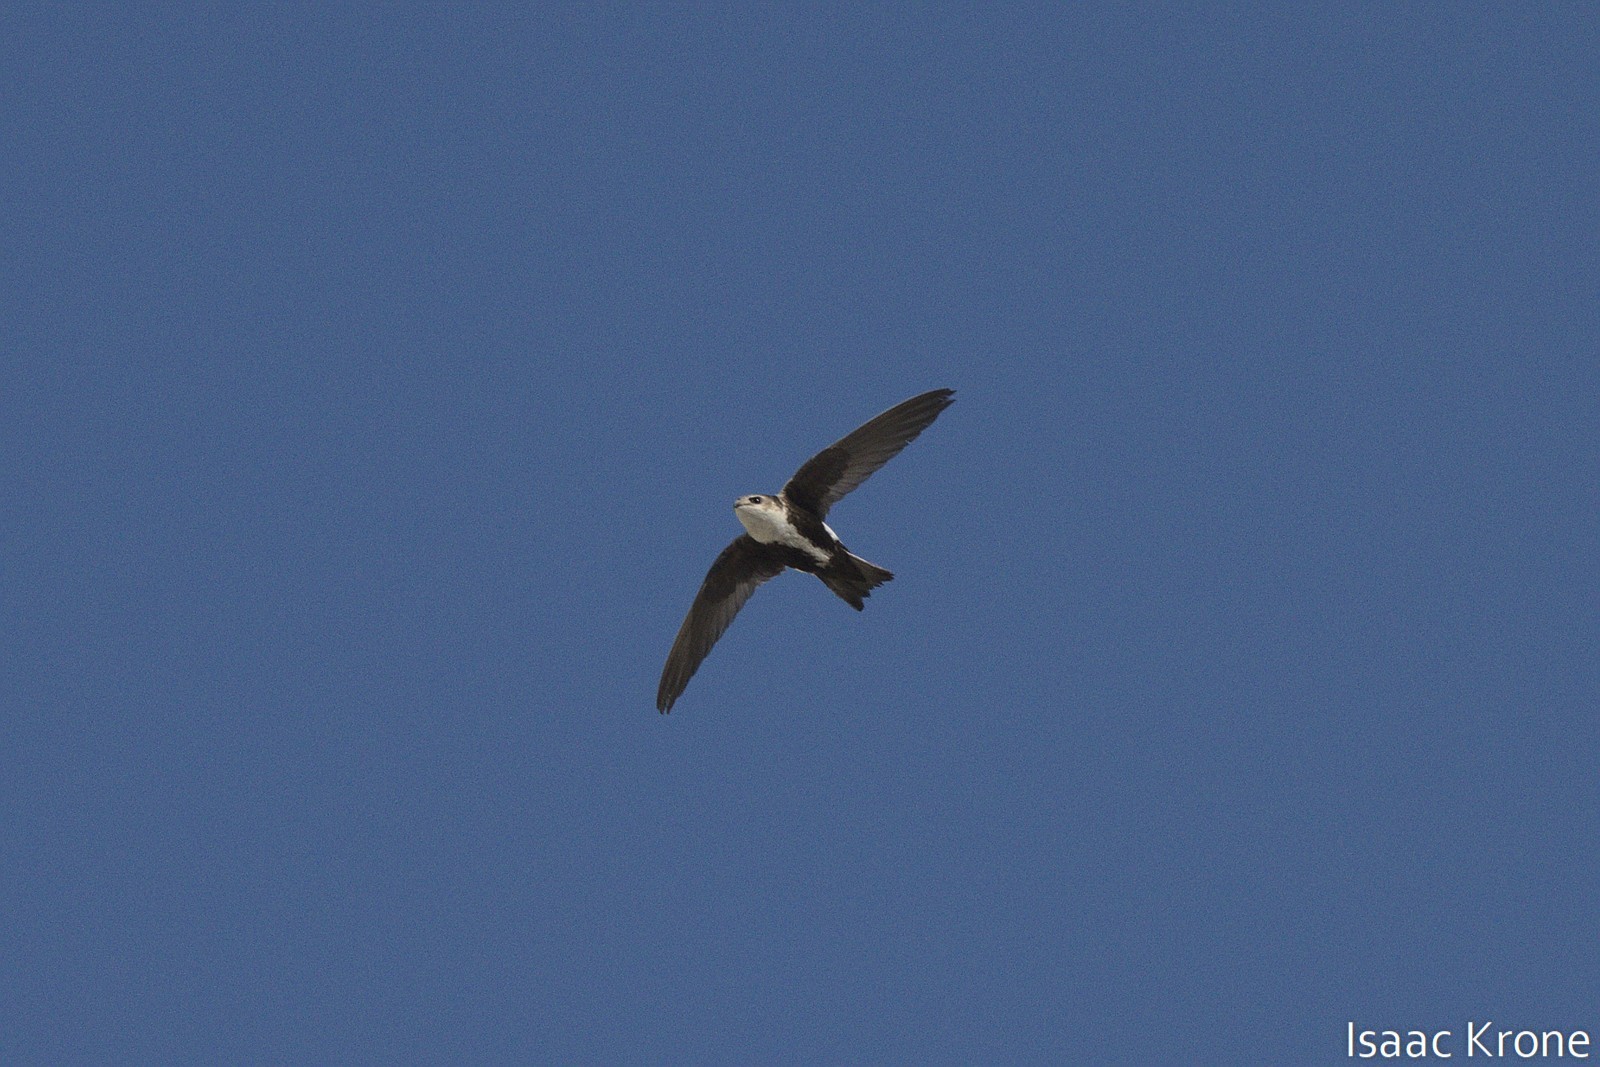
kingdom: Animalia
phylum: Chordata
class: Aves
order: Apodiformes
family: Apodidae
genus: Aeronautes
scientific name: Aeronautes saxatalis
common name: White-throated swift
